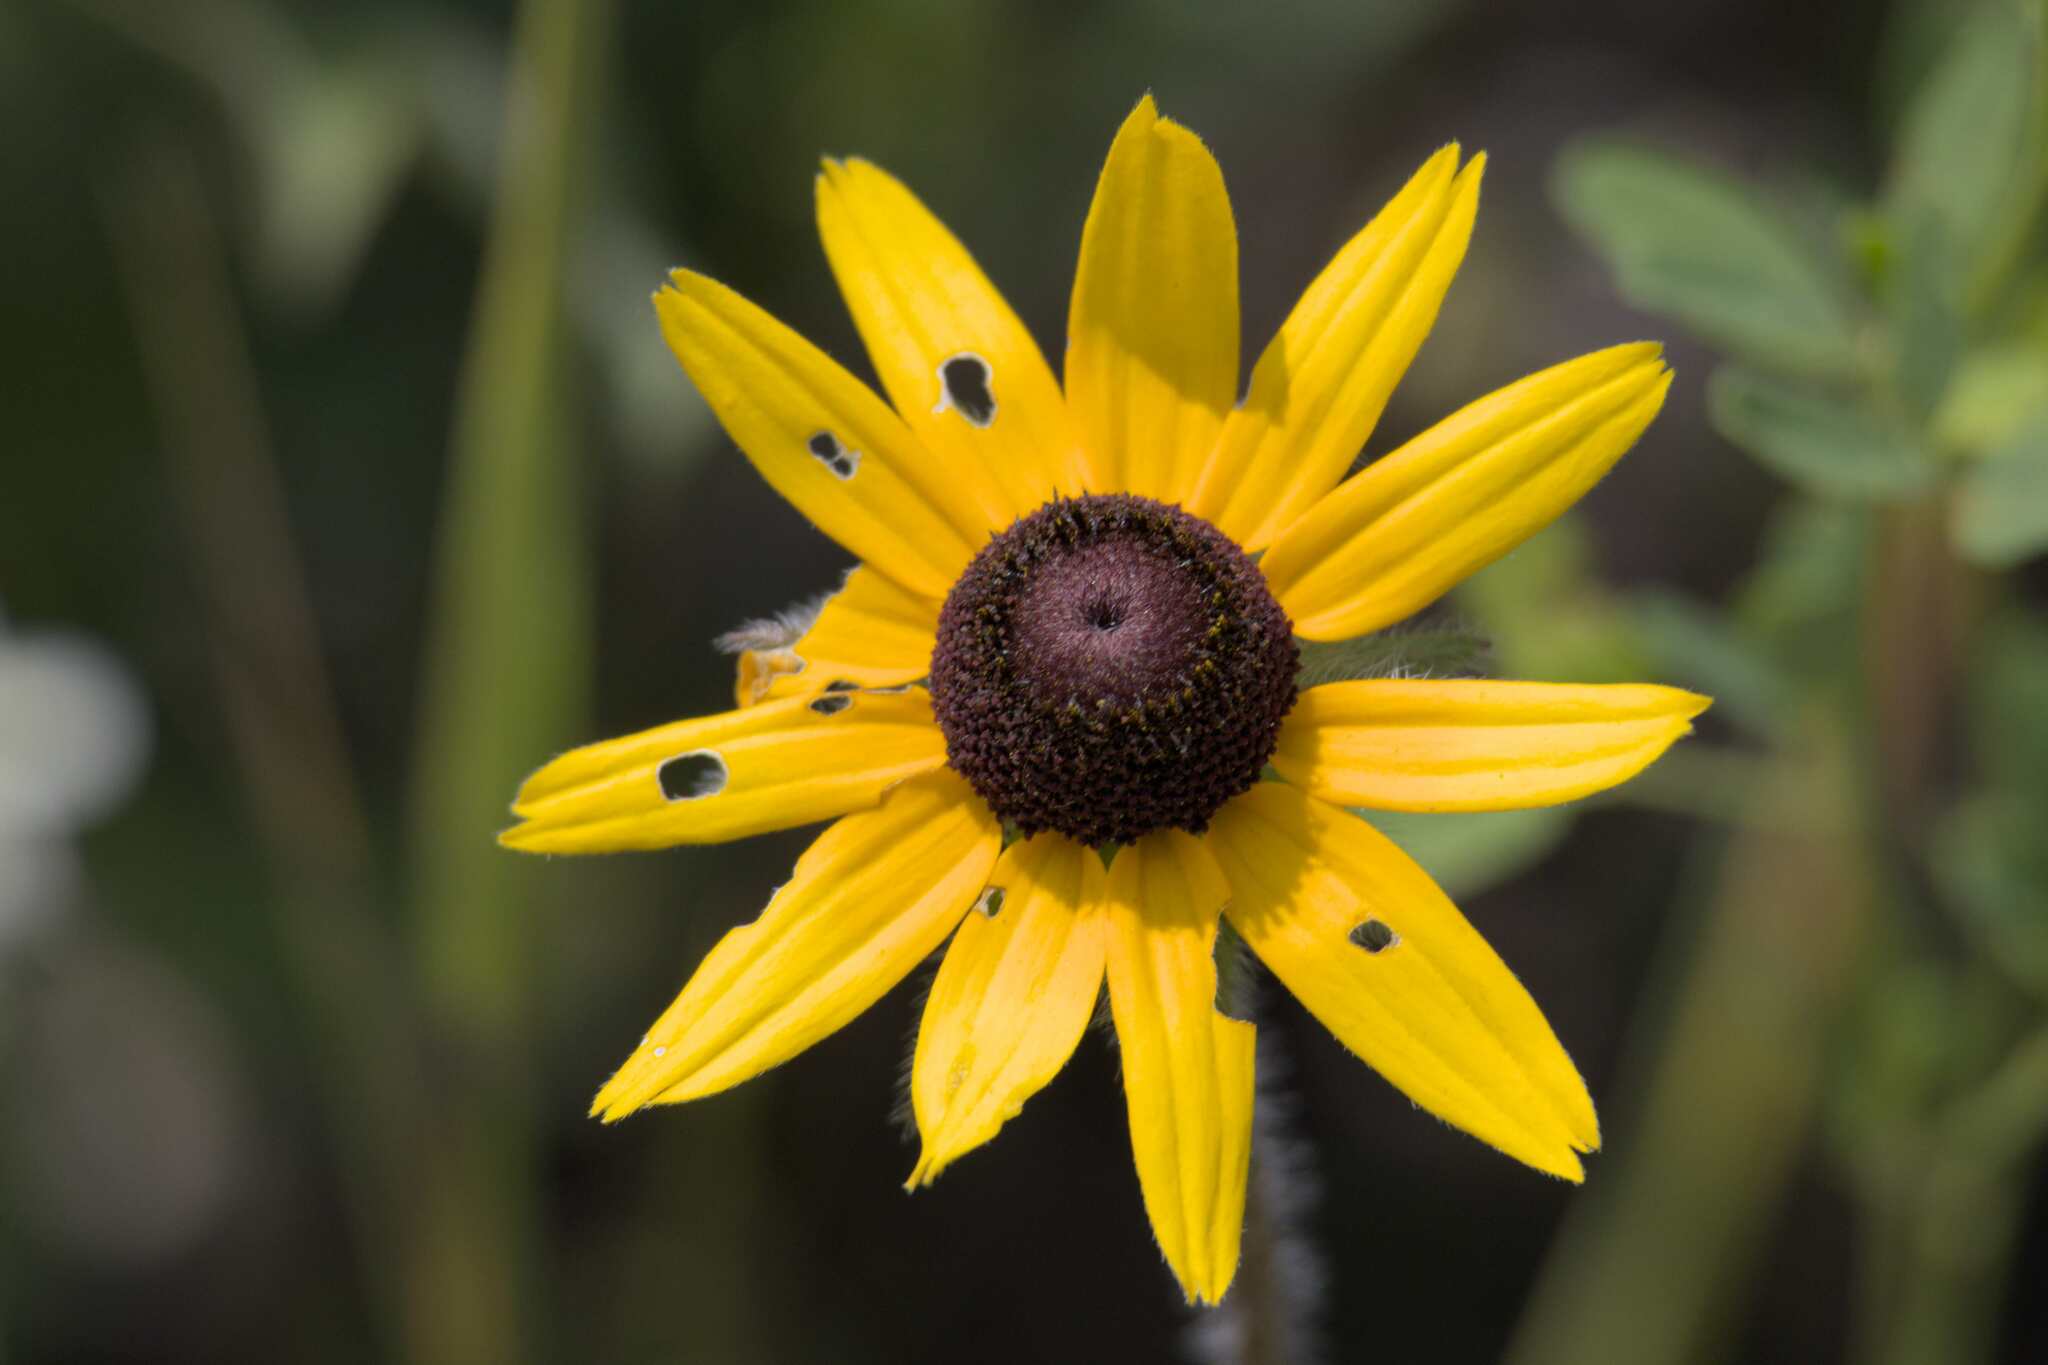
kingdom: Plantae
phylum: Tracheophyta
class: Magnoliopsida
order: Asterales
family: Asteraceae
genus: Rudbeckia
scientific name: Rudbeckia hirta
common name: Black-eyed-susan
